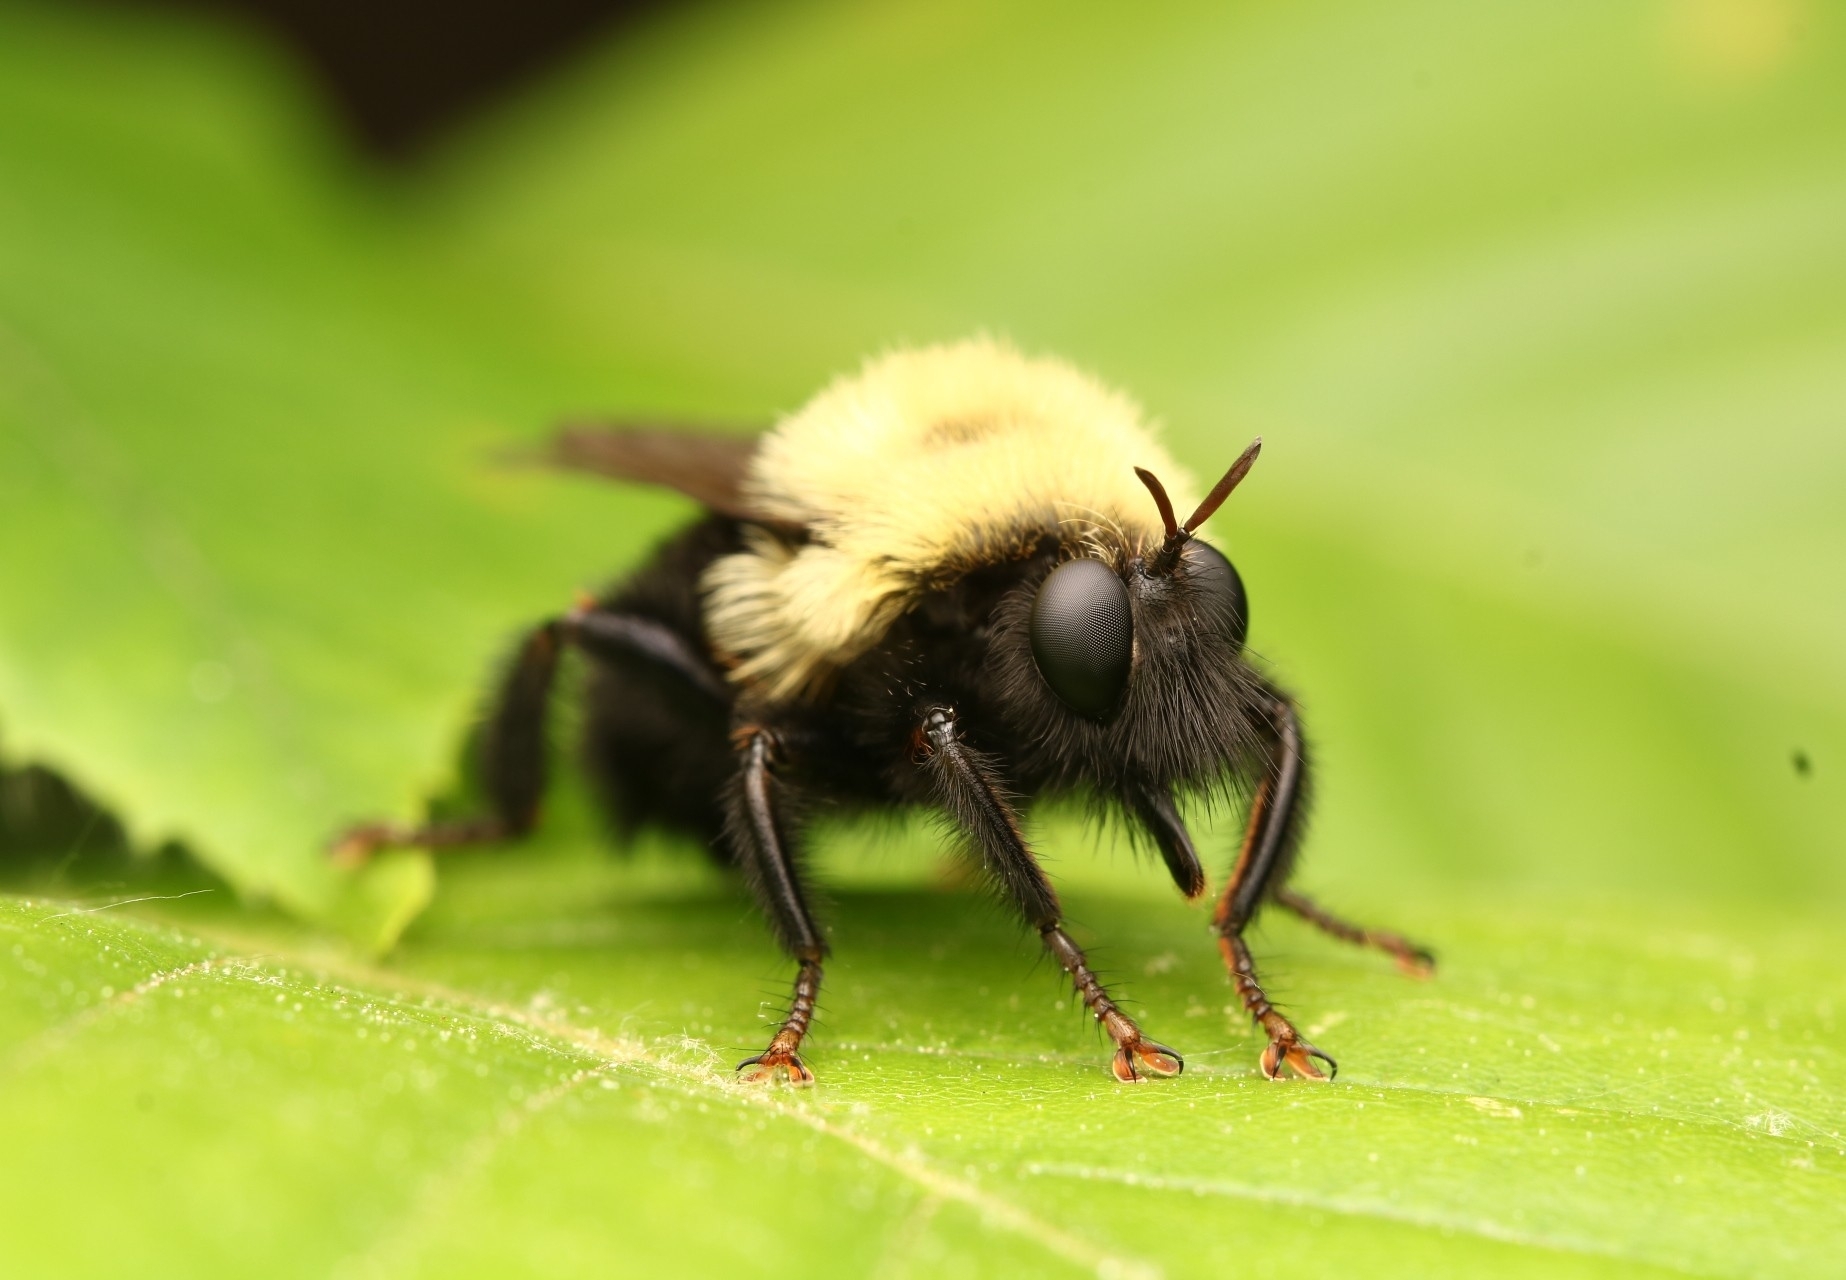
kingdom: Animalia
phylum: Arthropoda
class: Insecta
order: Diptera
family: Asilidae
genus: Laphria
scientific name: Laphria thoracica
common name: Bumble bee mimic robber fly
